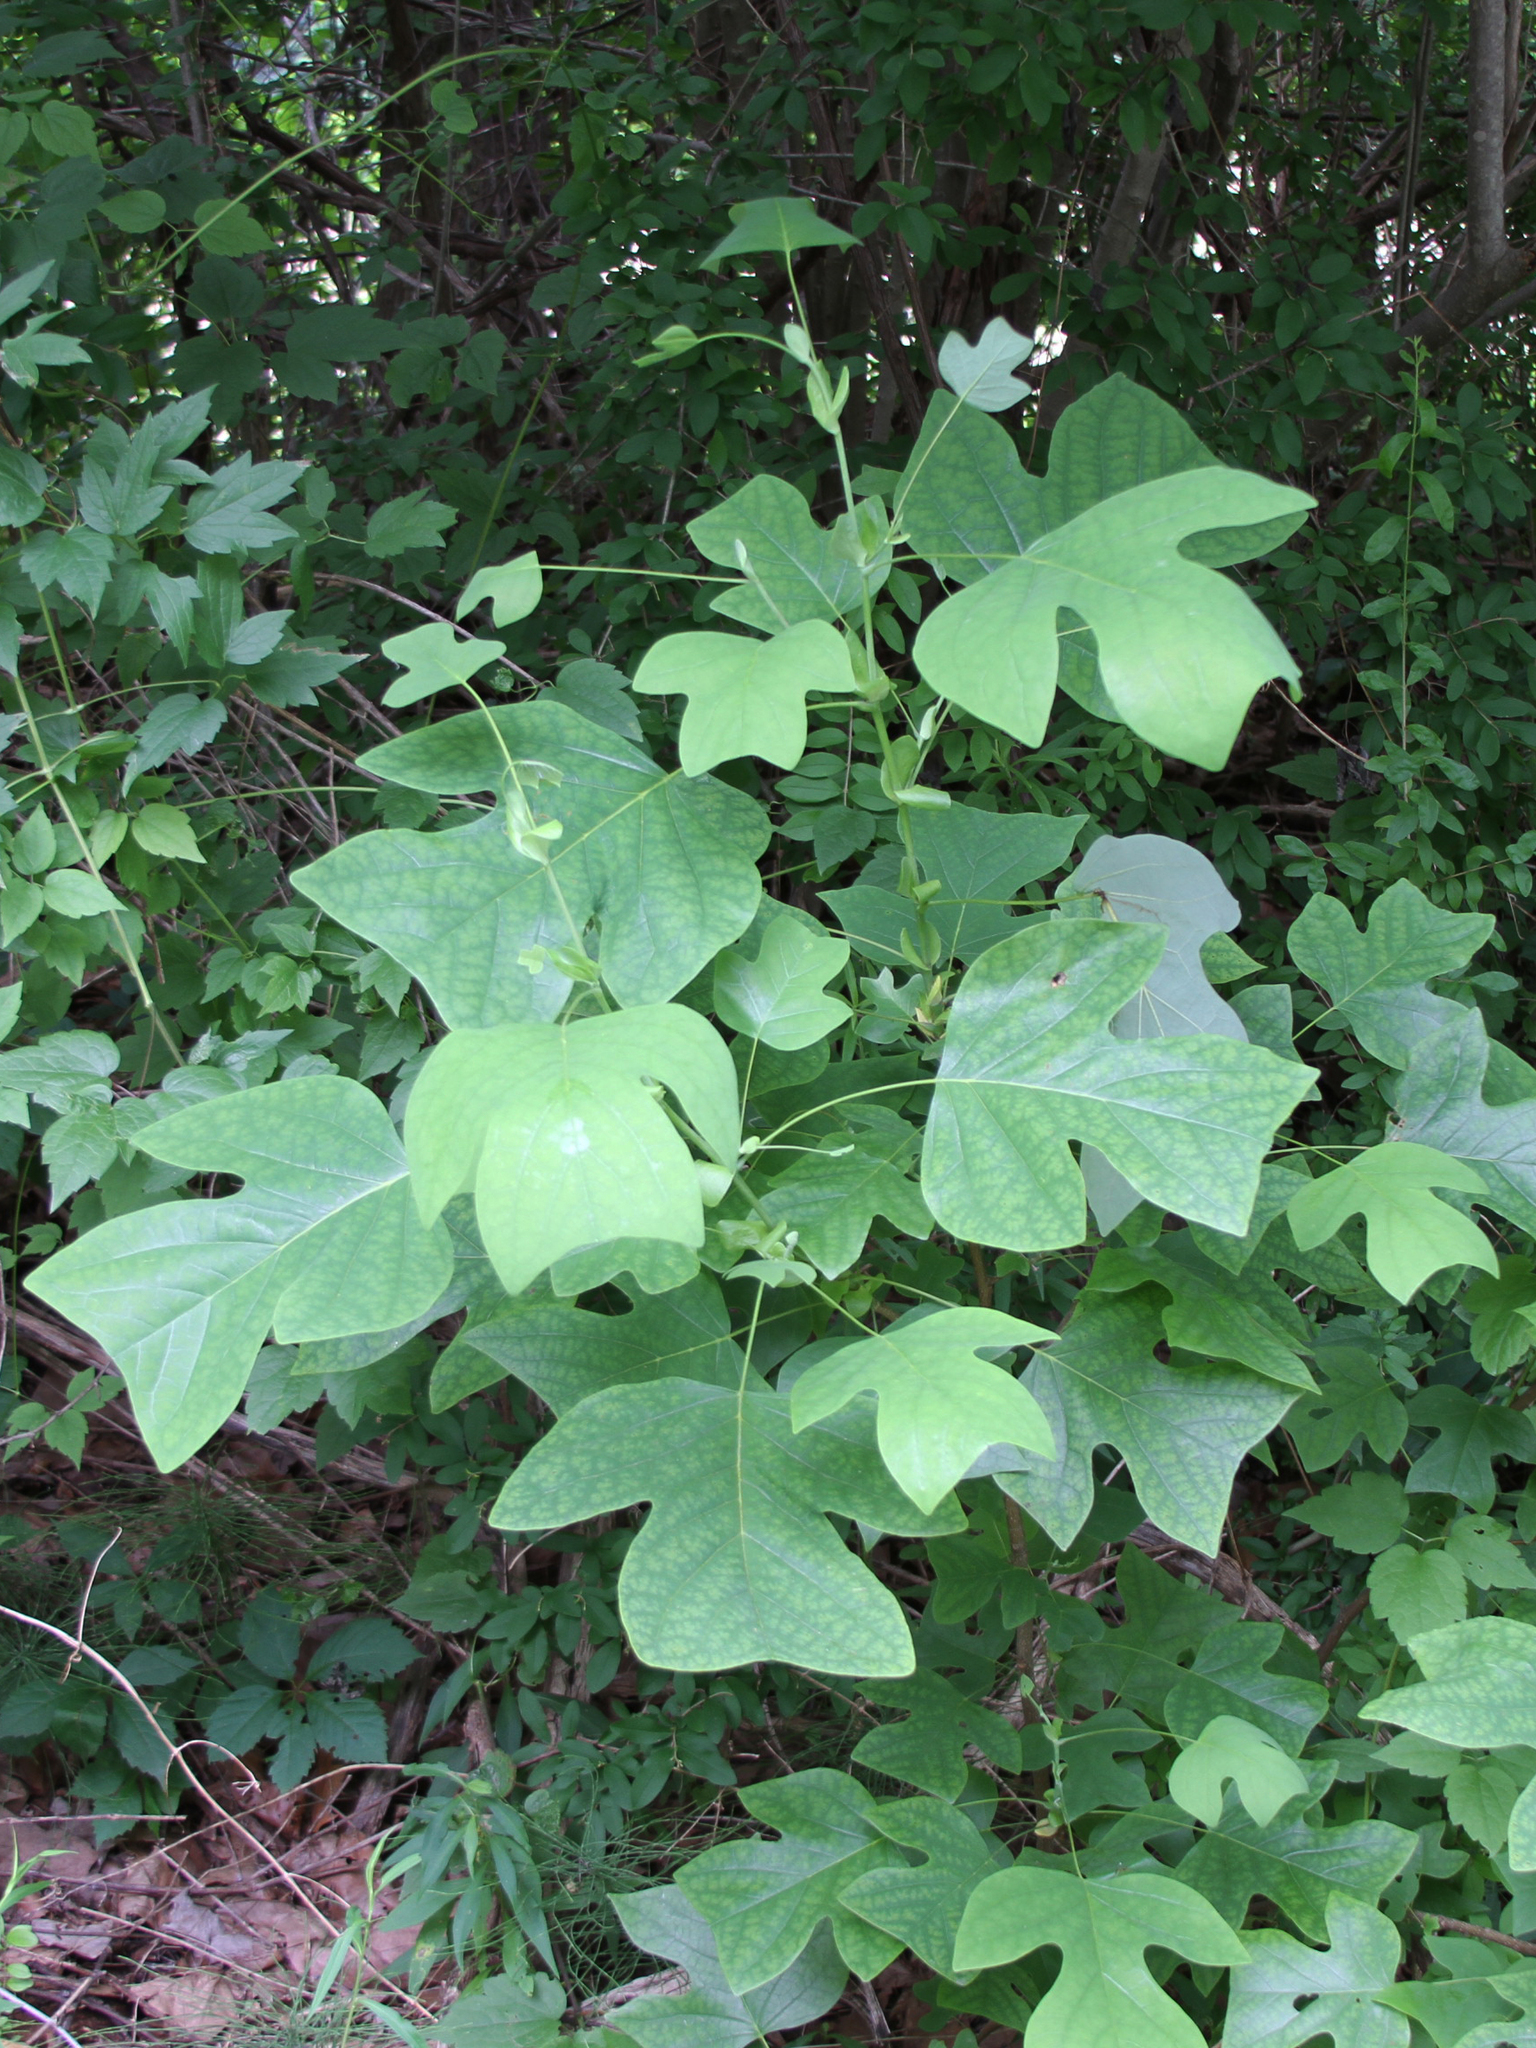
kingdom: Plantae
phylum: Tracheophyta
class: Magnoliopsida
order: Magnoliales
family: Magnoliaceae
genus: Liriodendron
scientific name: Liriodendron tulipifera
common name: Tulip tree
